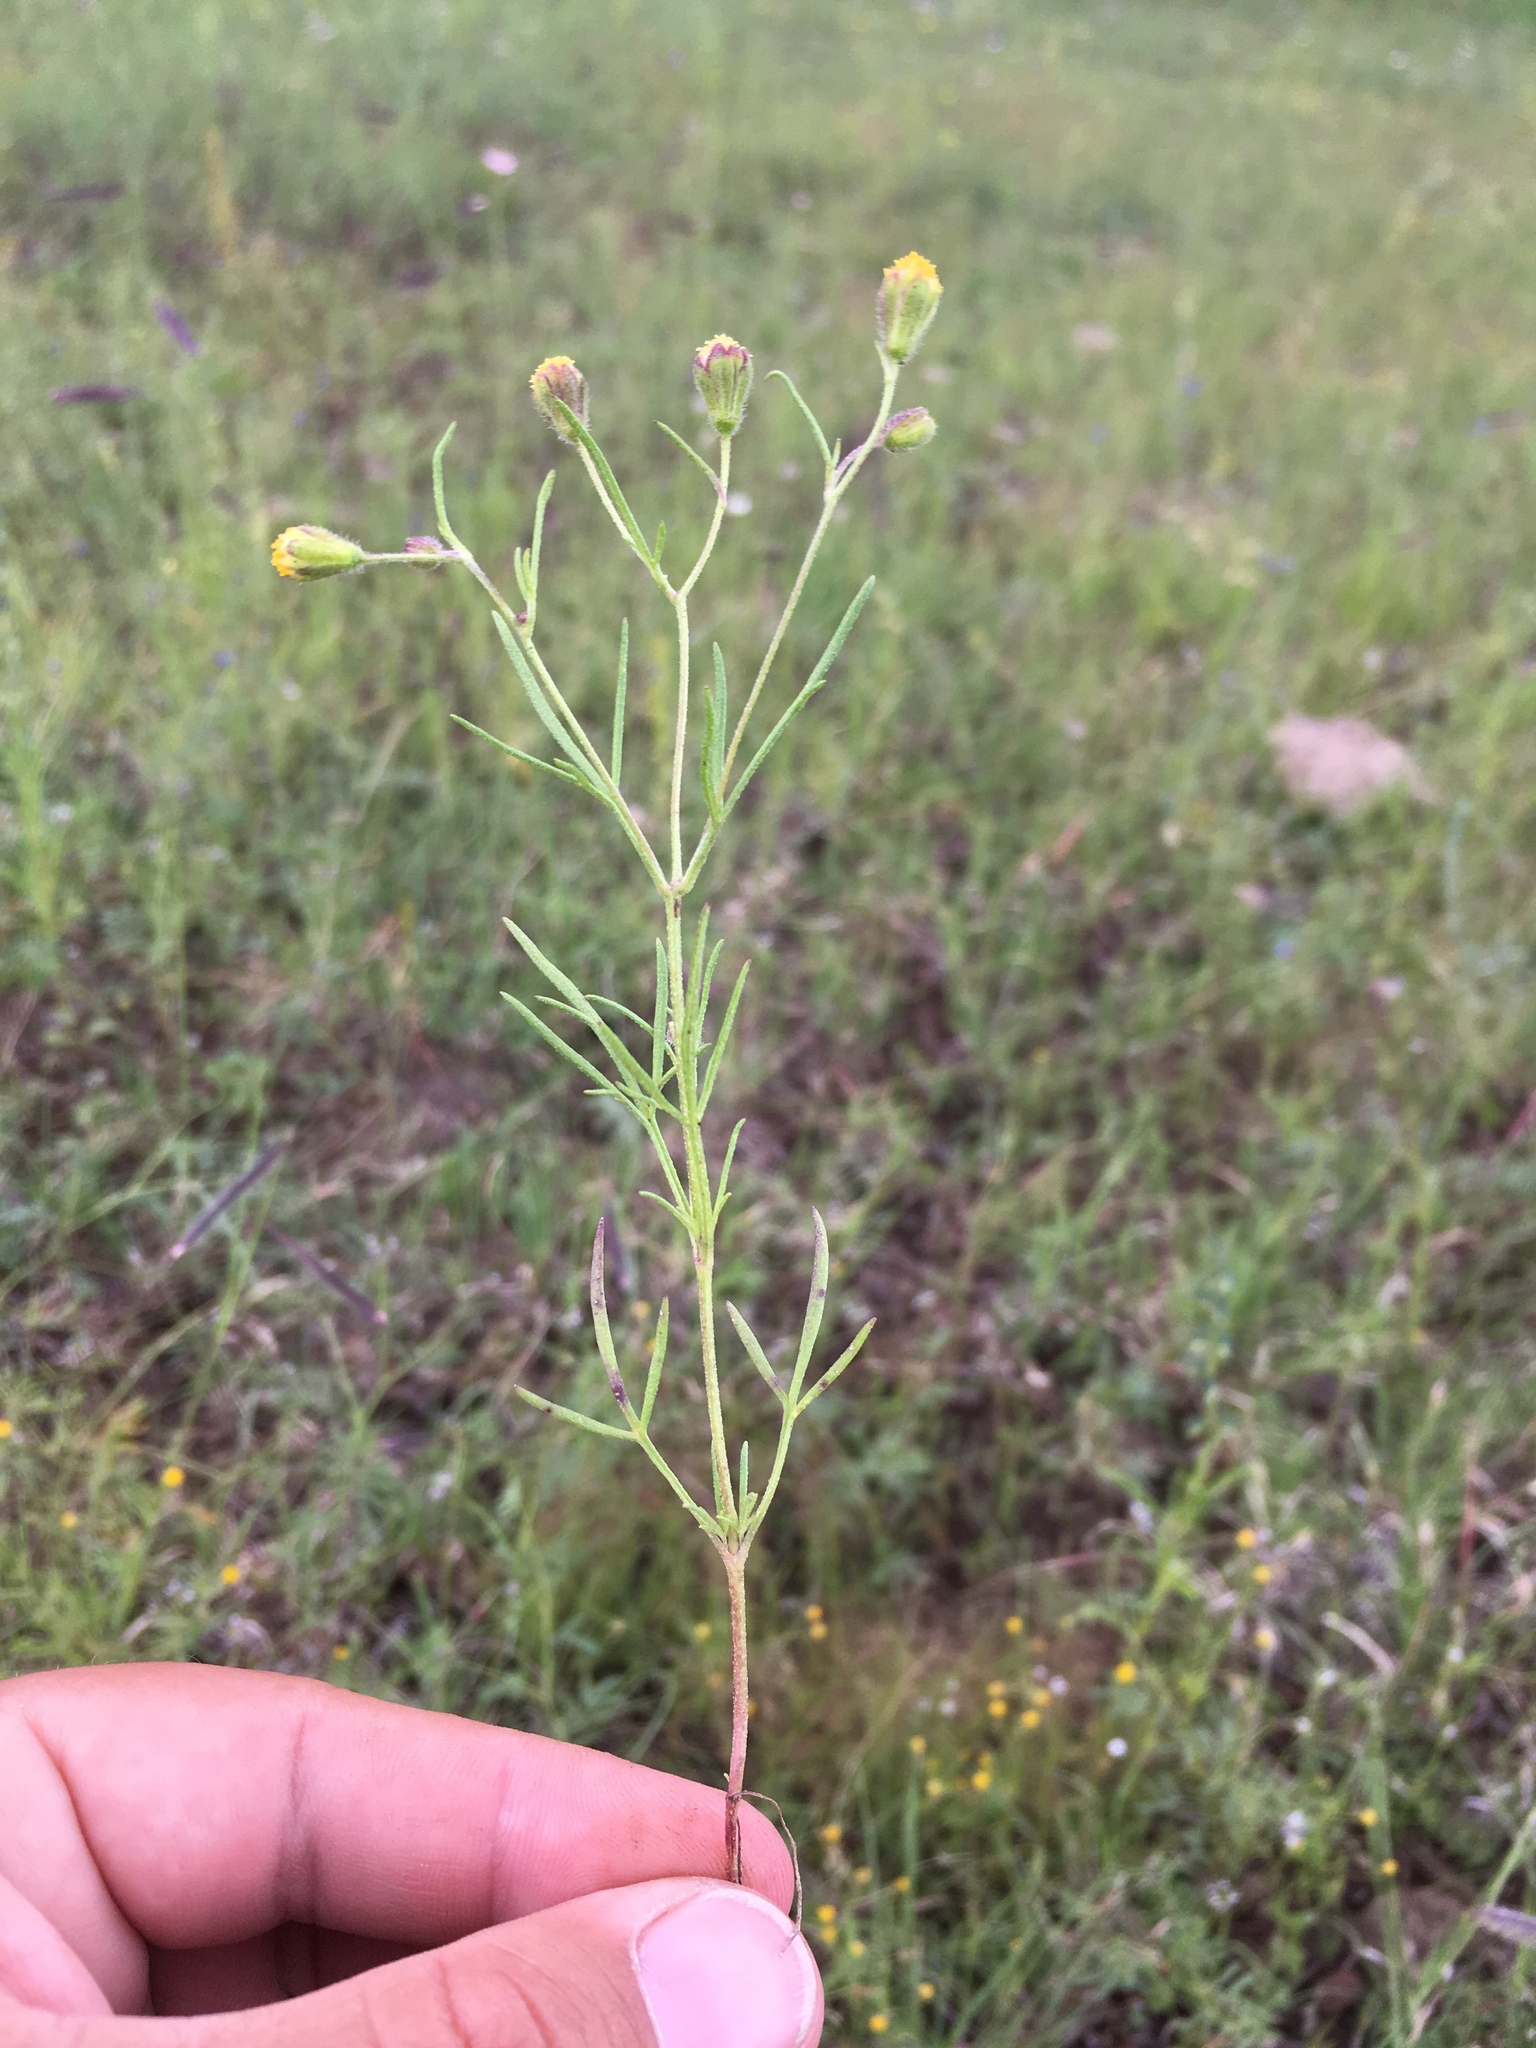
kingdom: Plantae
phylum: Tracheophyta
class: Magnoliopsida
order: Asterales
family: Asteraceae
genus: Picradeniopsis
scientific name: Picradeniopsis multiflora
